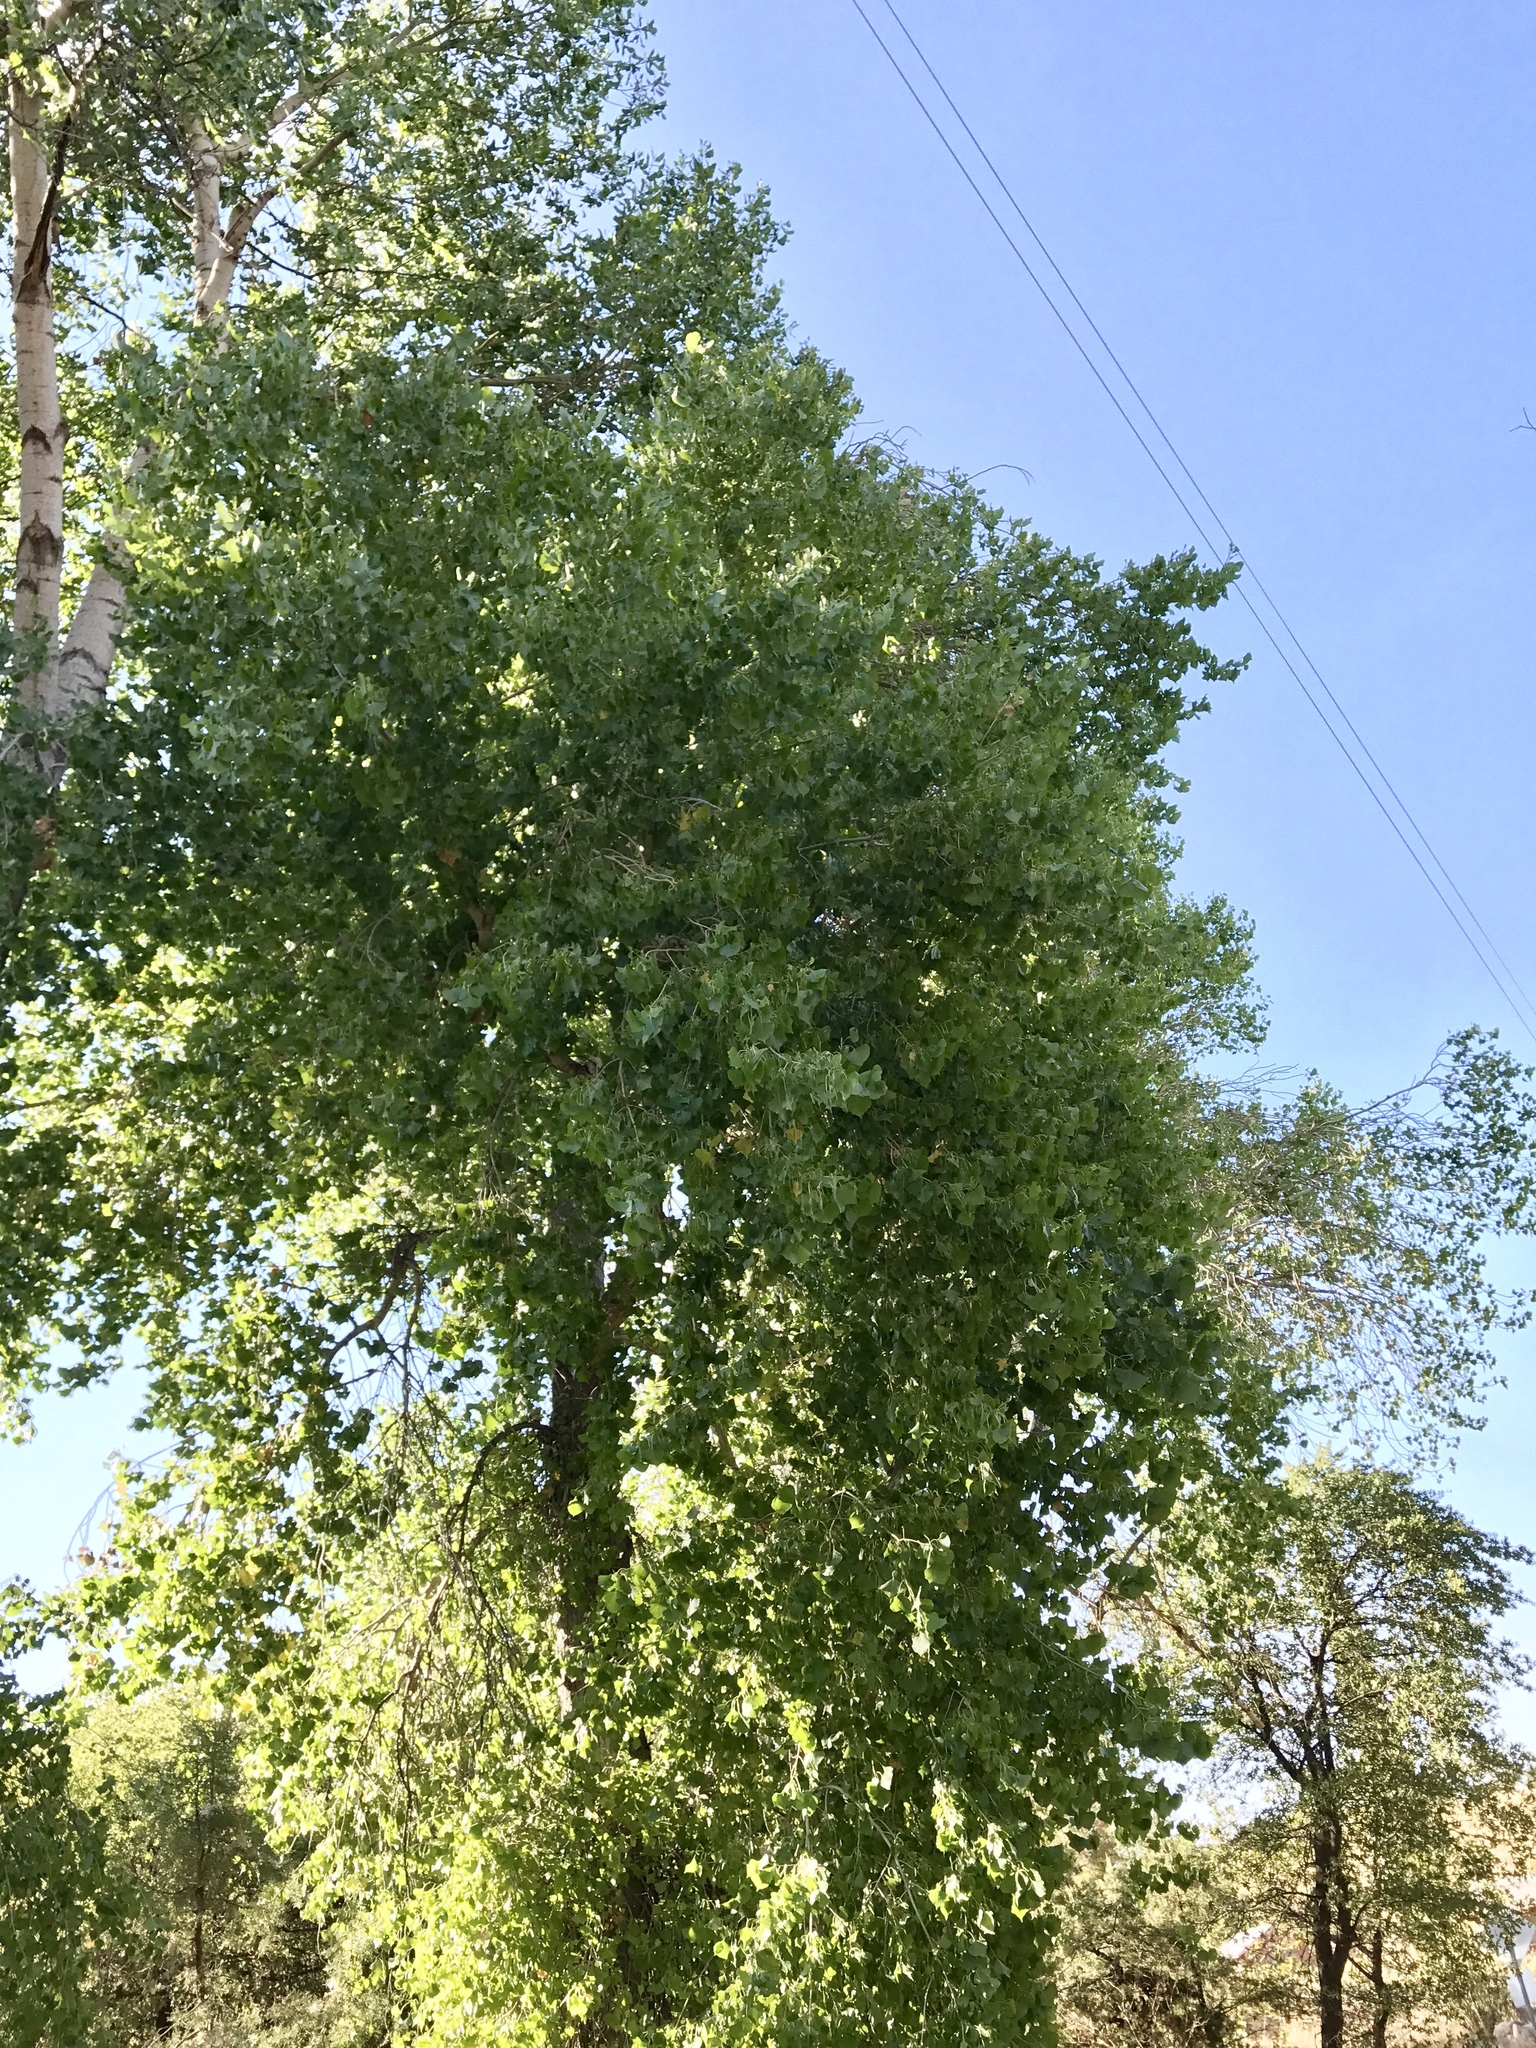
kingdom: Plantae
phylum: Tracheophyta
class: Magnoliopsida
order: Malpighiales
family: Salicaceae
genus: Populus
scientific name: Populus fremontii
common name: Fremont's cottonwood
